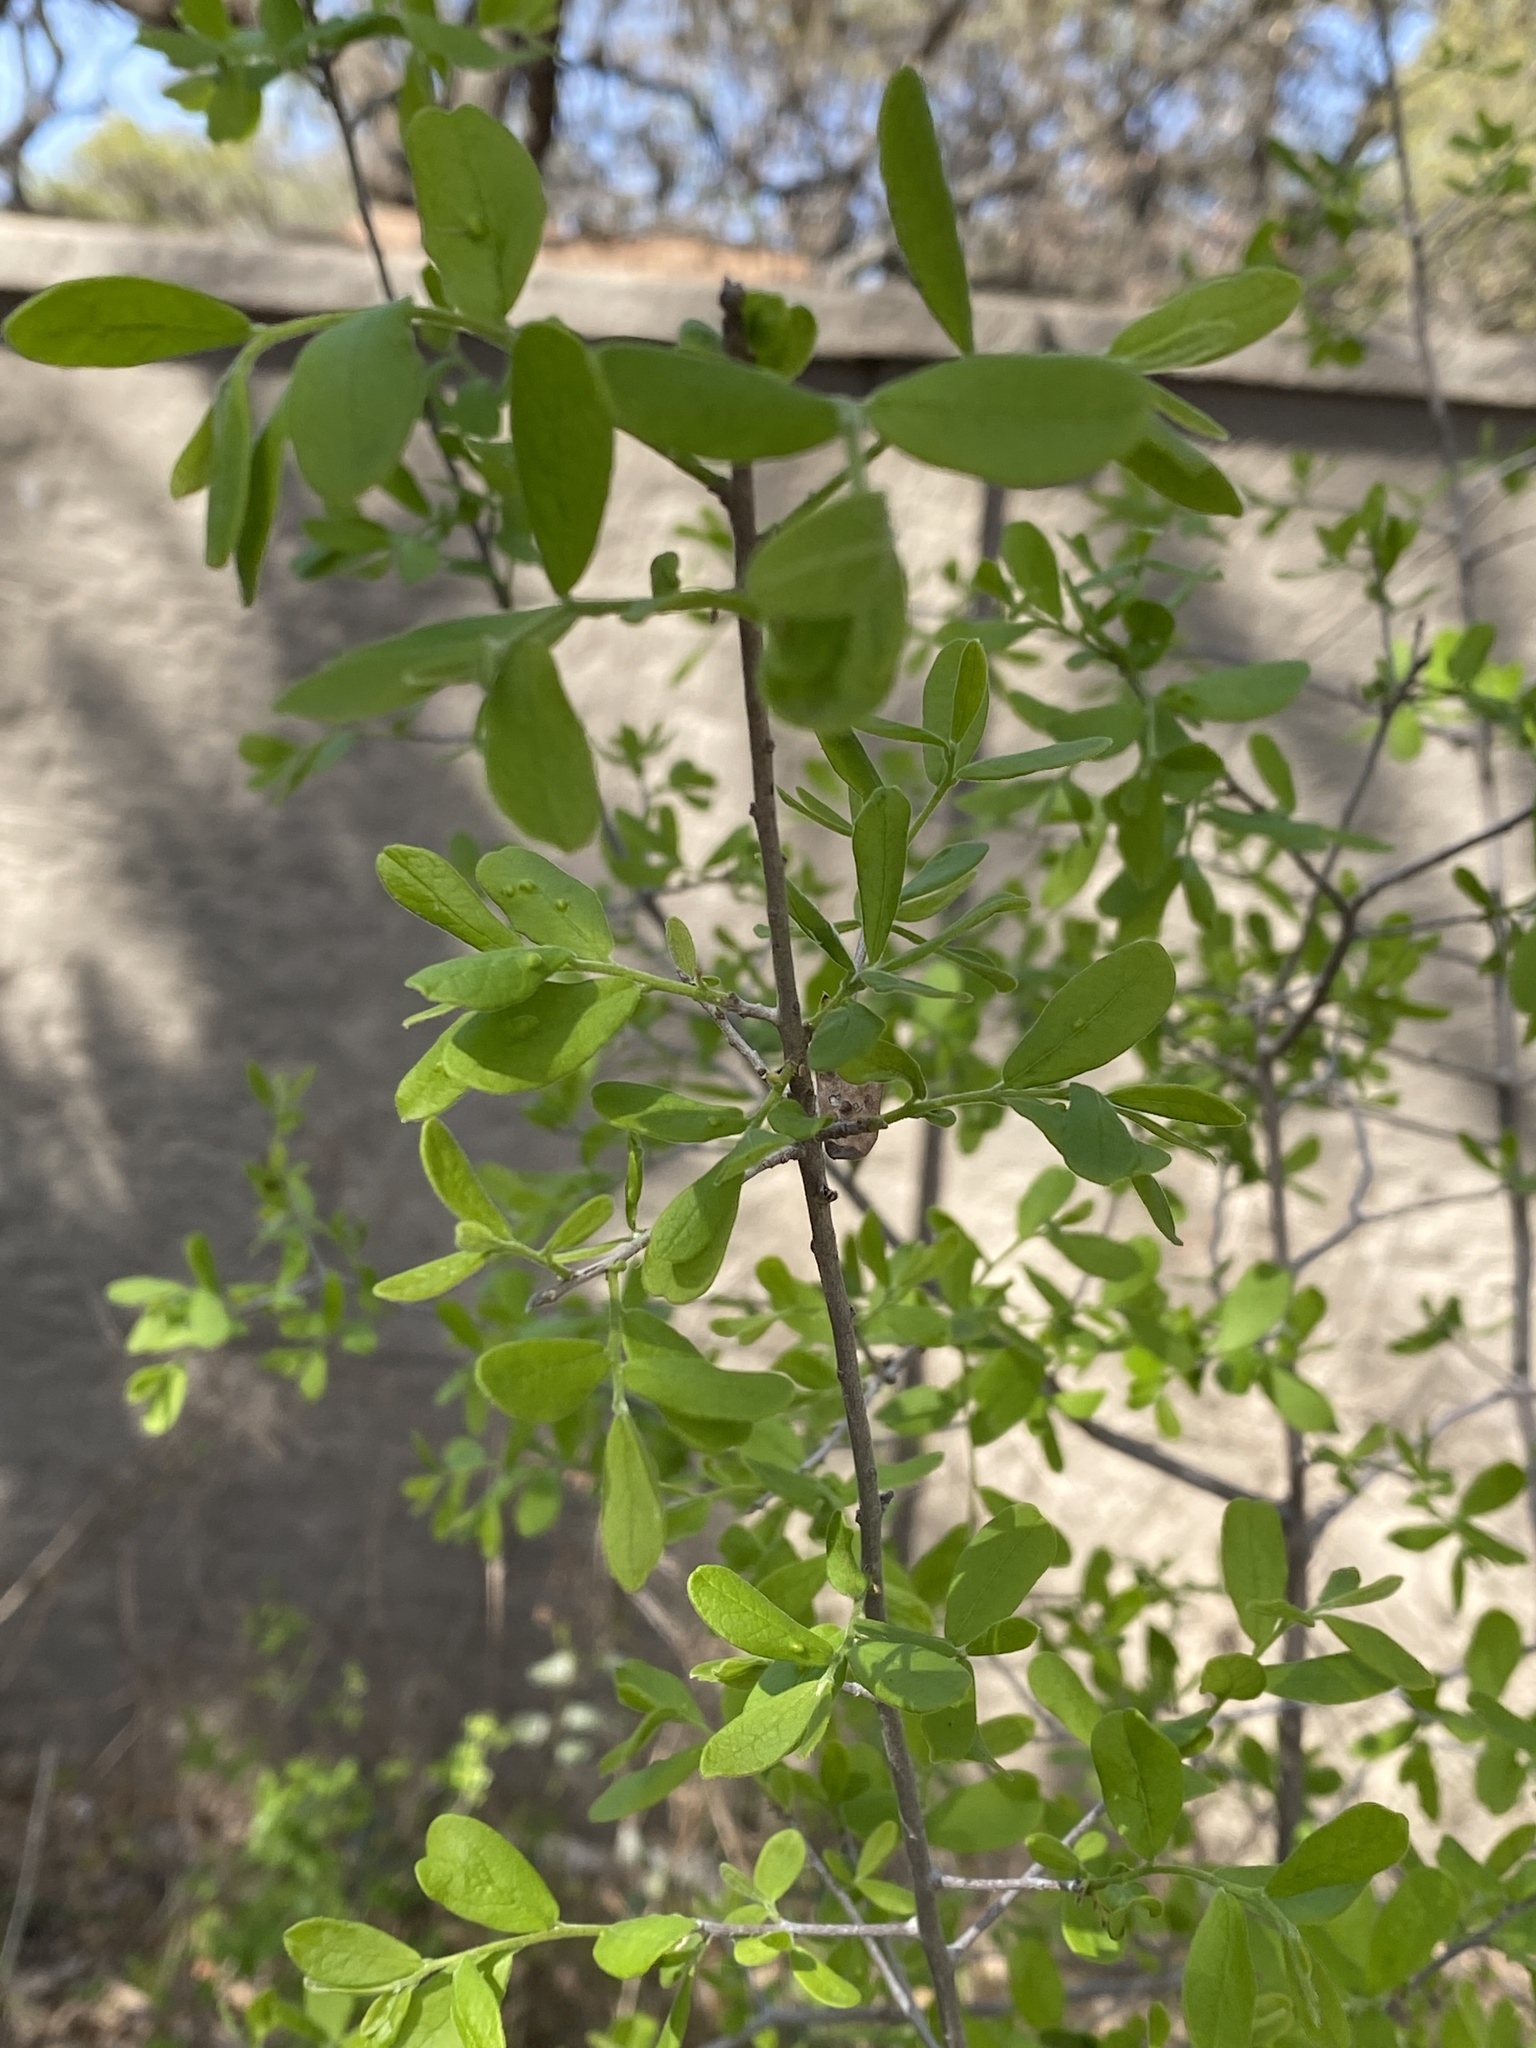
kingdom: Plantae
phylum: Tracheophyta
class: Magnoliopsida
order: Ericales
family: Ebenaceae
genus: Diospyros
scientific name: Diospyros texana
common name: Texas persimmon
